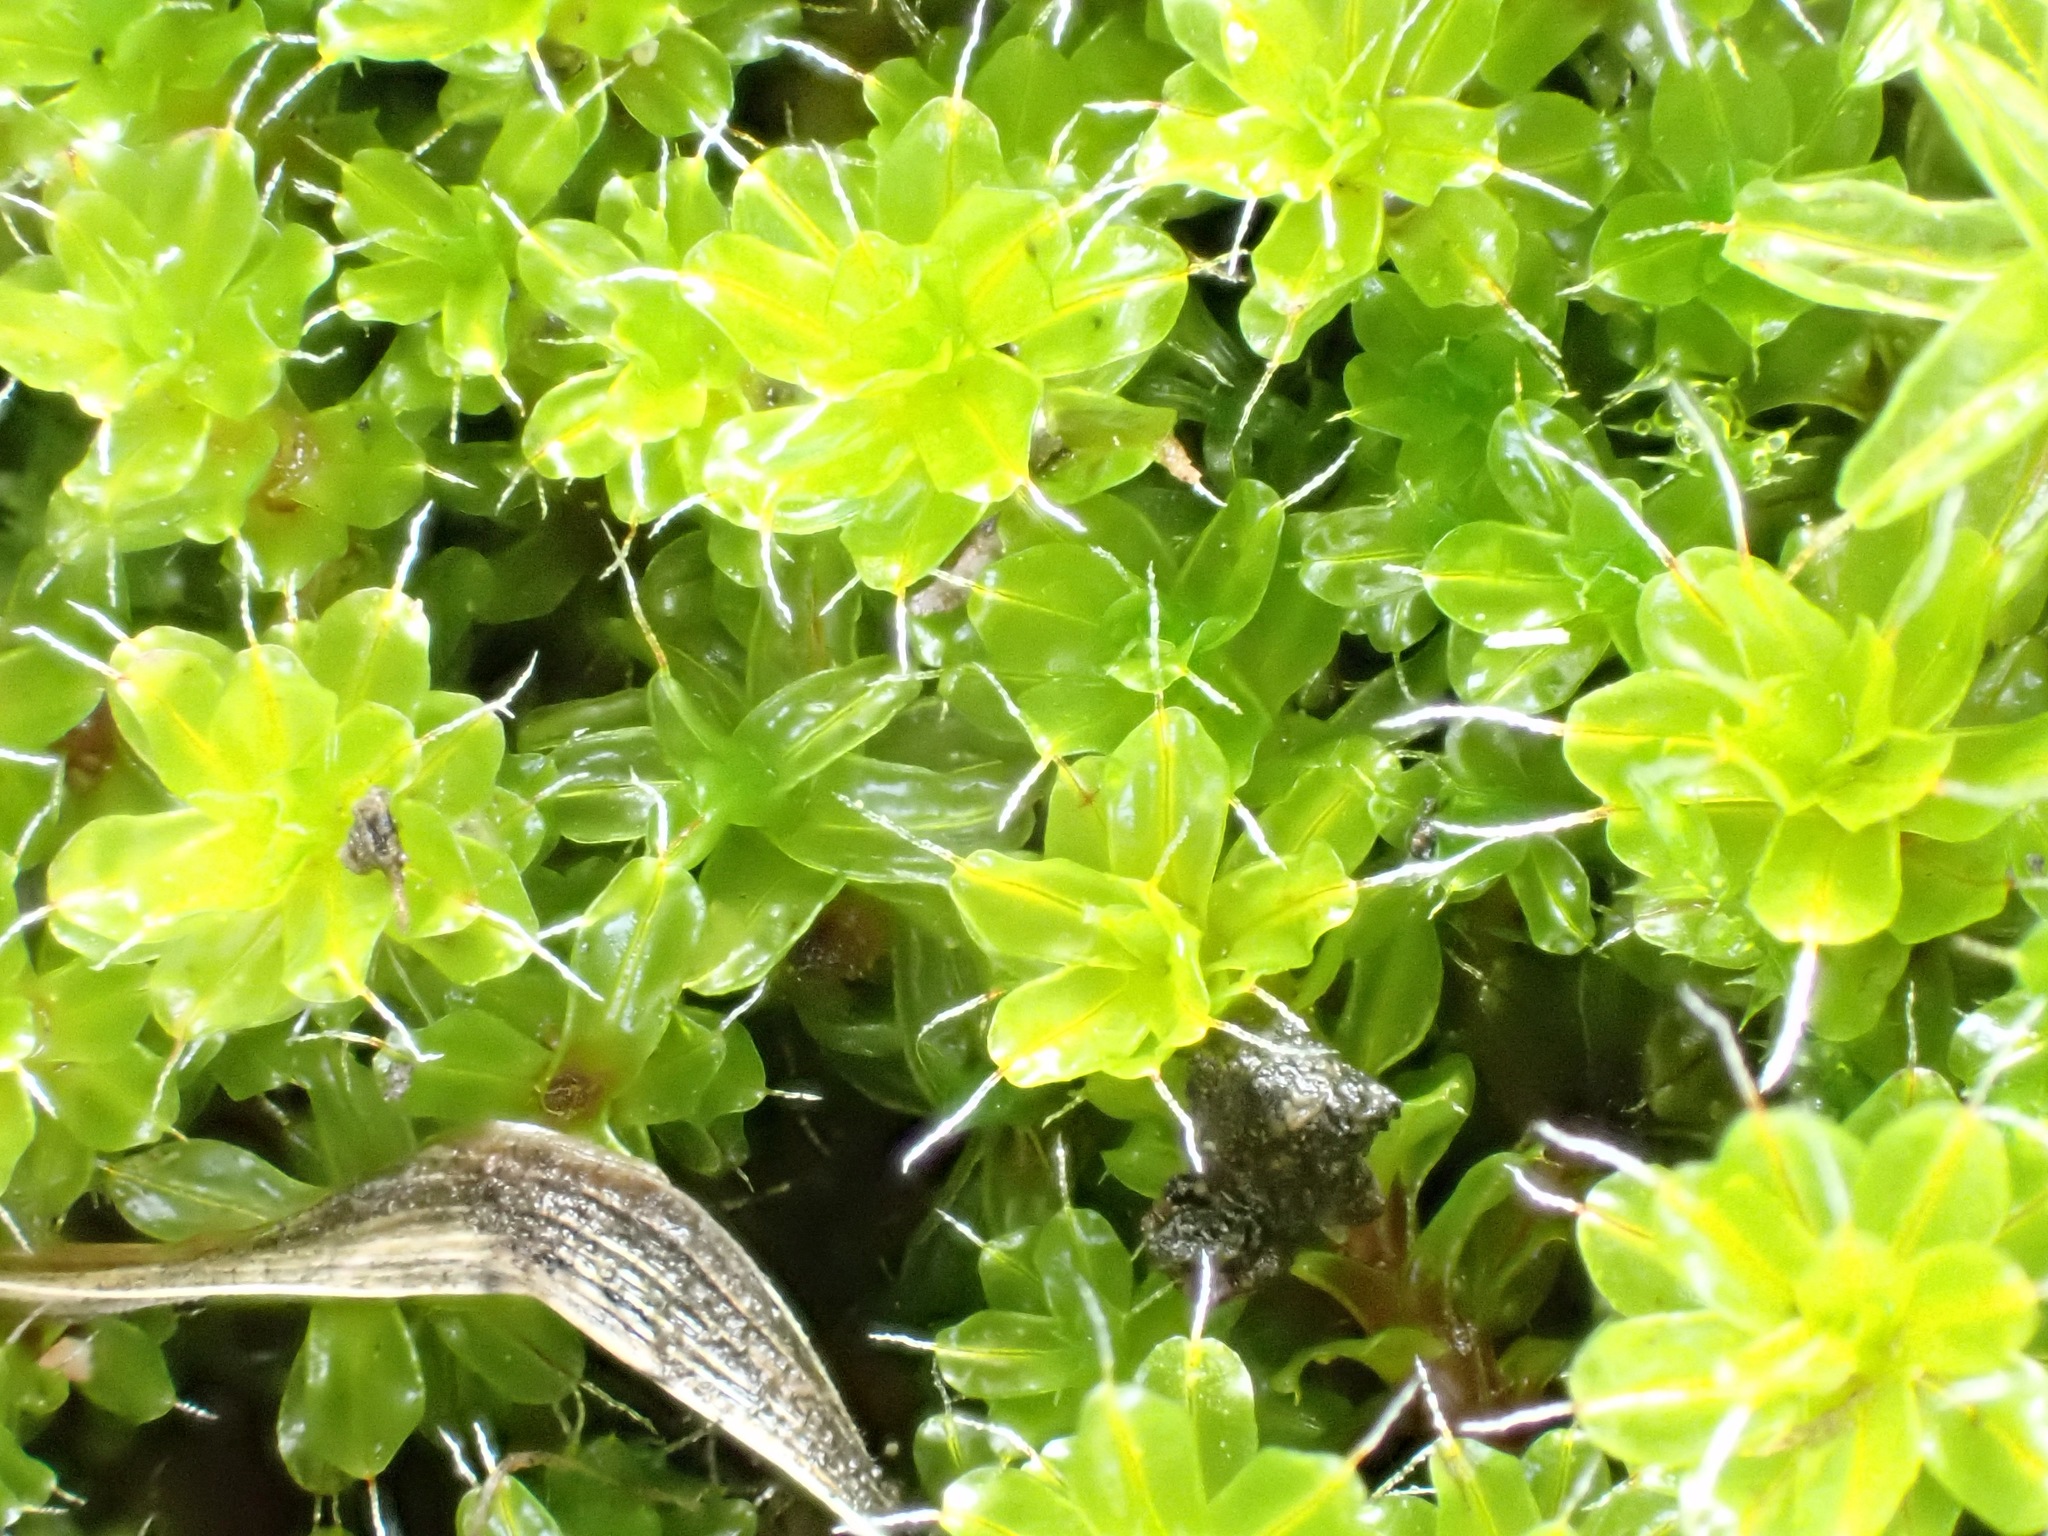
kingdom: Plantae
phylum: Bryophyta
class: Bryopsida
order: Pottiales
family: Pottiaceae
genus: Syntrichia
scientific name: Syntrichia ruralis
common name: Sidewalk screw moss
